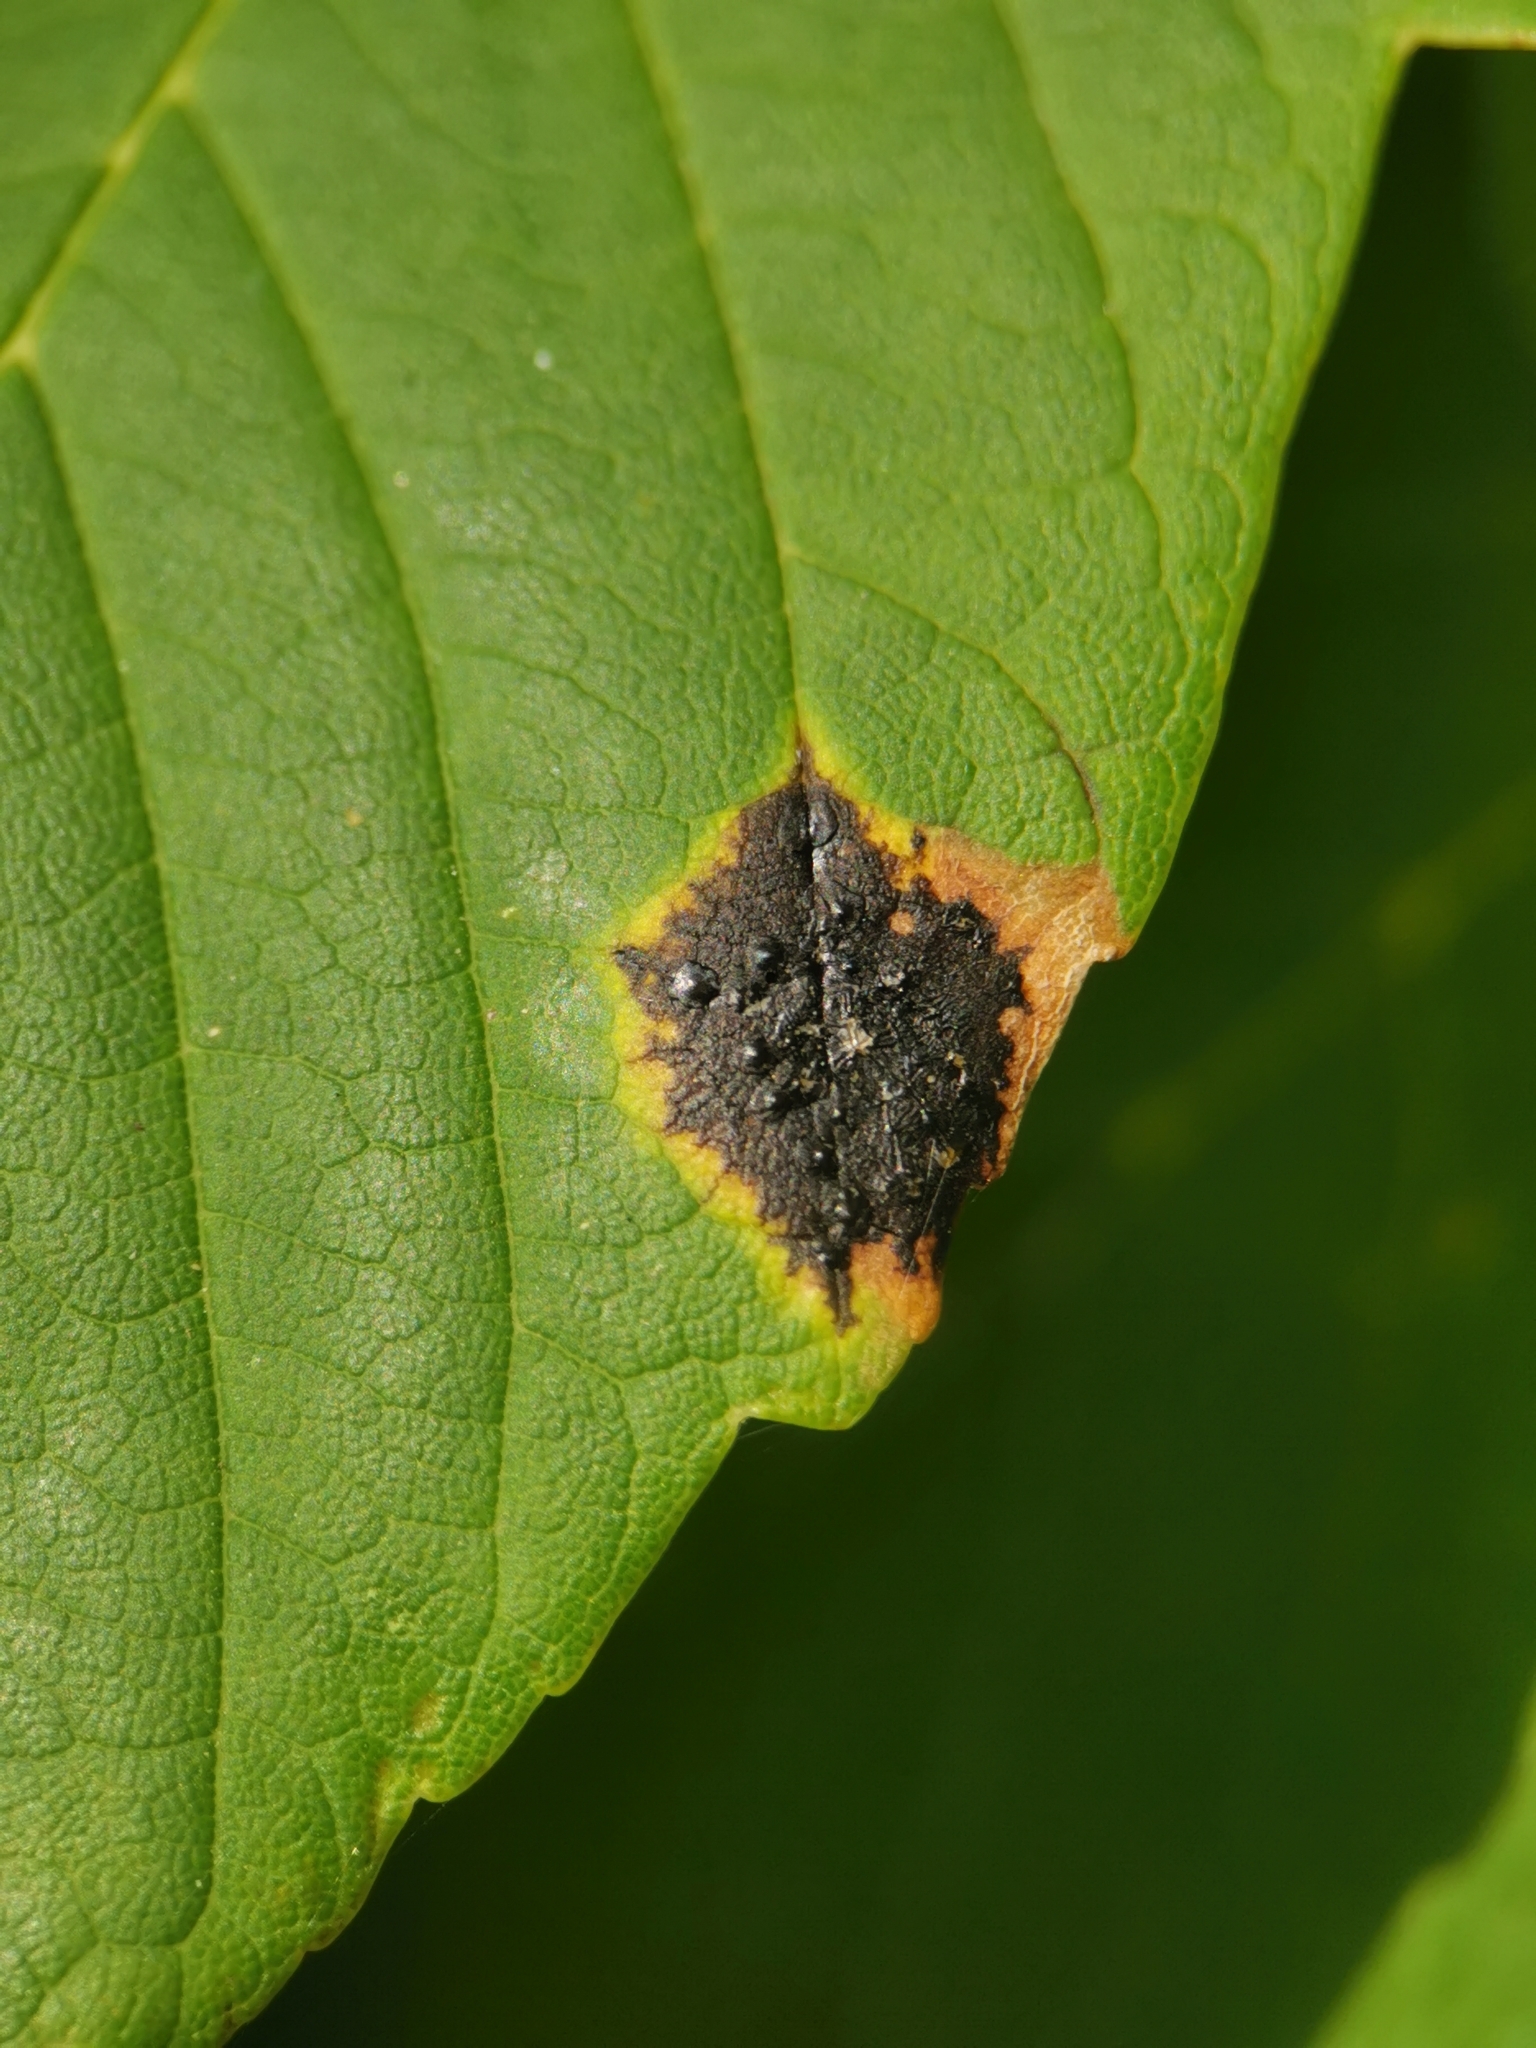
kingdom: Fungi
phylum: Ascomycota
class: Leotiomycetes
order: Rhytismatales
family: Rhytismataceae
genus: Rhytisma
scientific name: Rhytisma acerinum
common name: European tar spot
